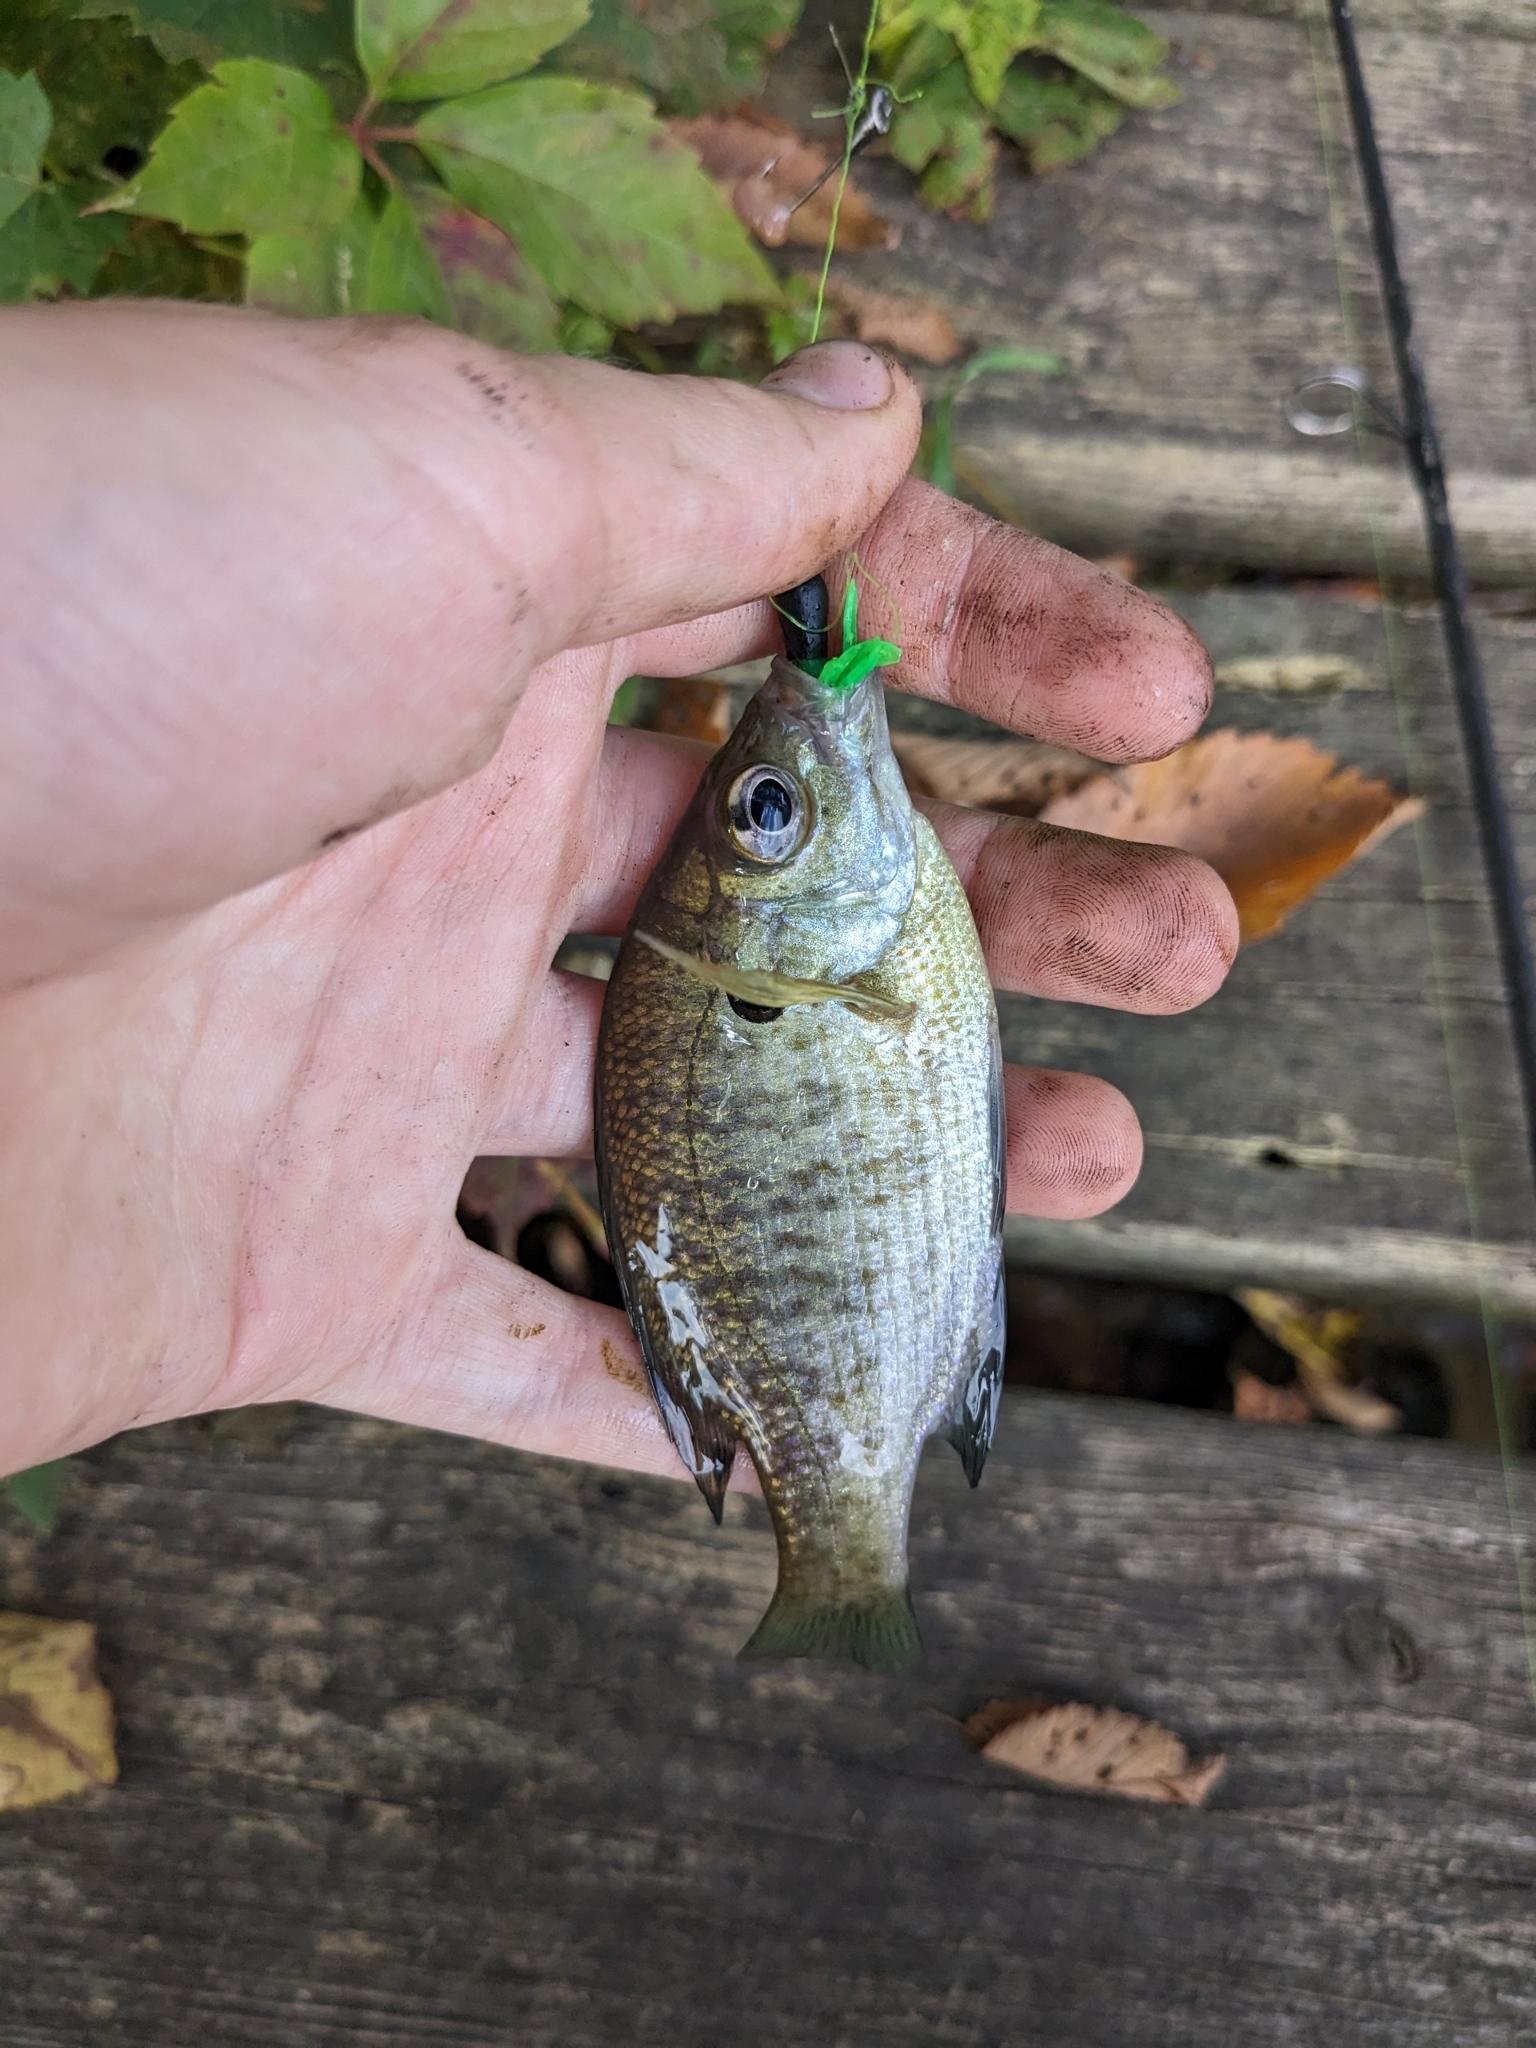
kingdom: Animalia
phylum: Chordata
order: Perciformes
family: Centrarchidae
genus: Lepomis
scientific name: Lepomis macrochirus
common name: Bluegill
